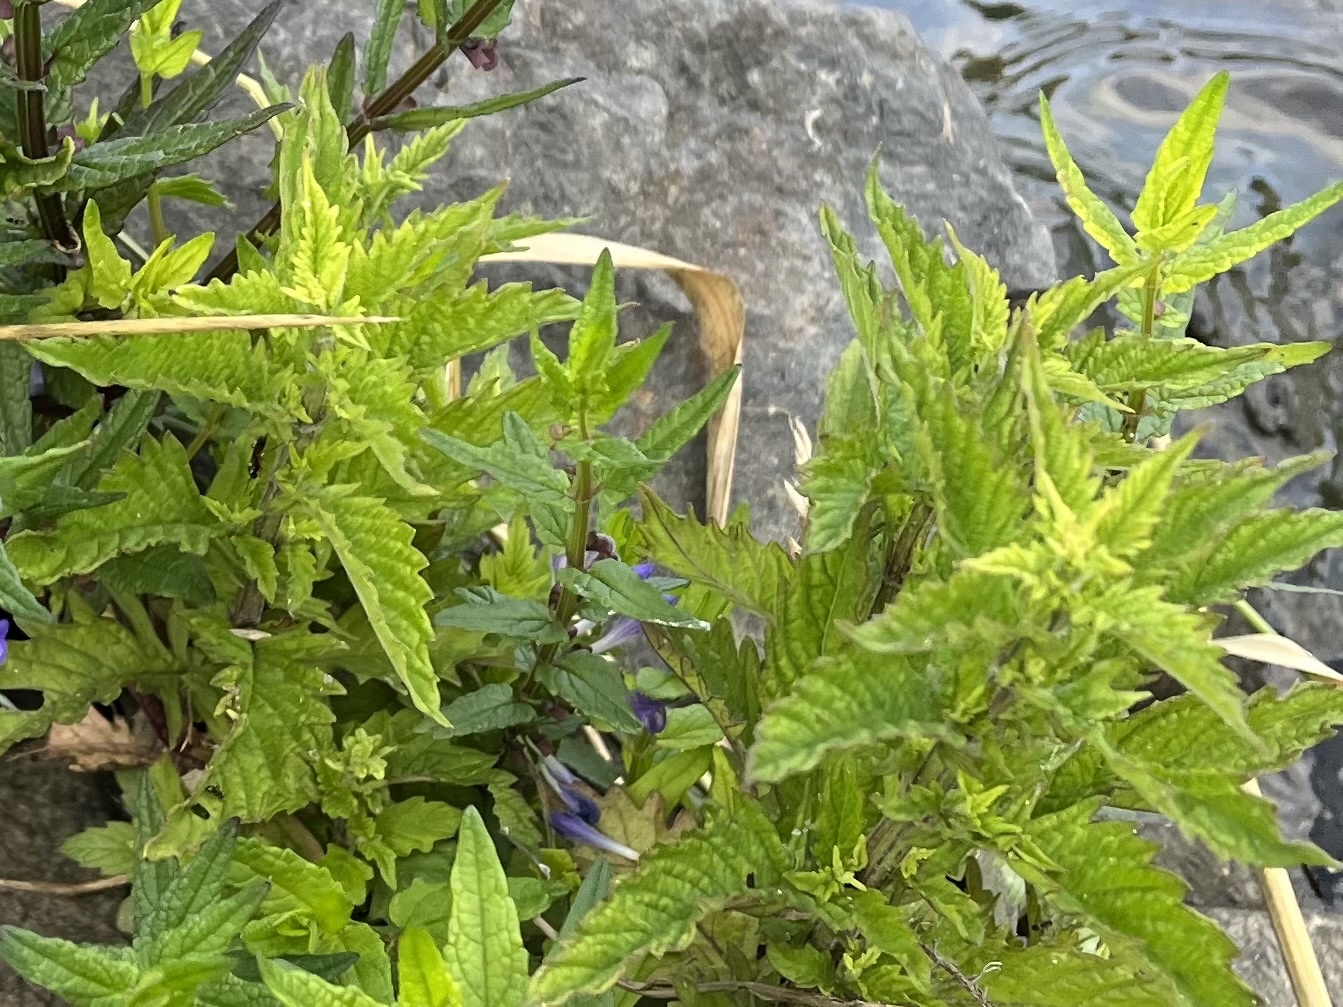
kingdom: Plantae
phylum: Tracheophyta
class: Magnoliopsida
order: Lamiales
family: Lamiaceae
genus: Lycopus
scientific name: Lycopus europaeus
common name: European bugleweed
